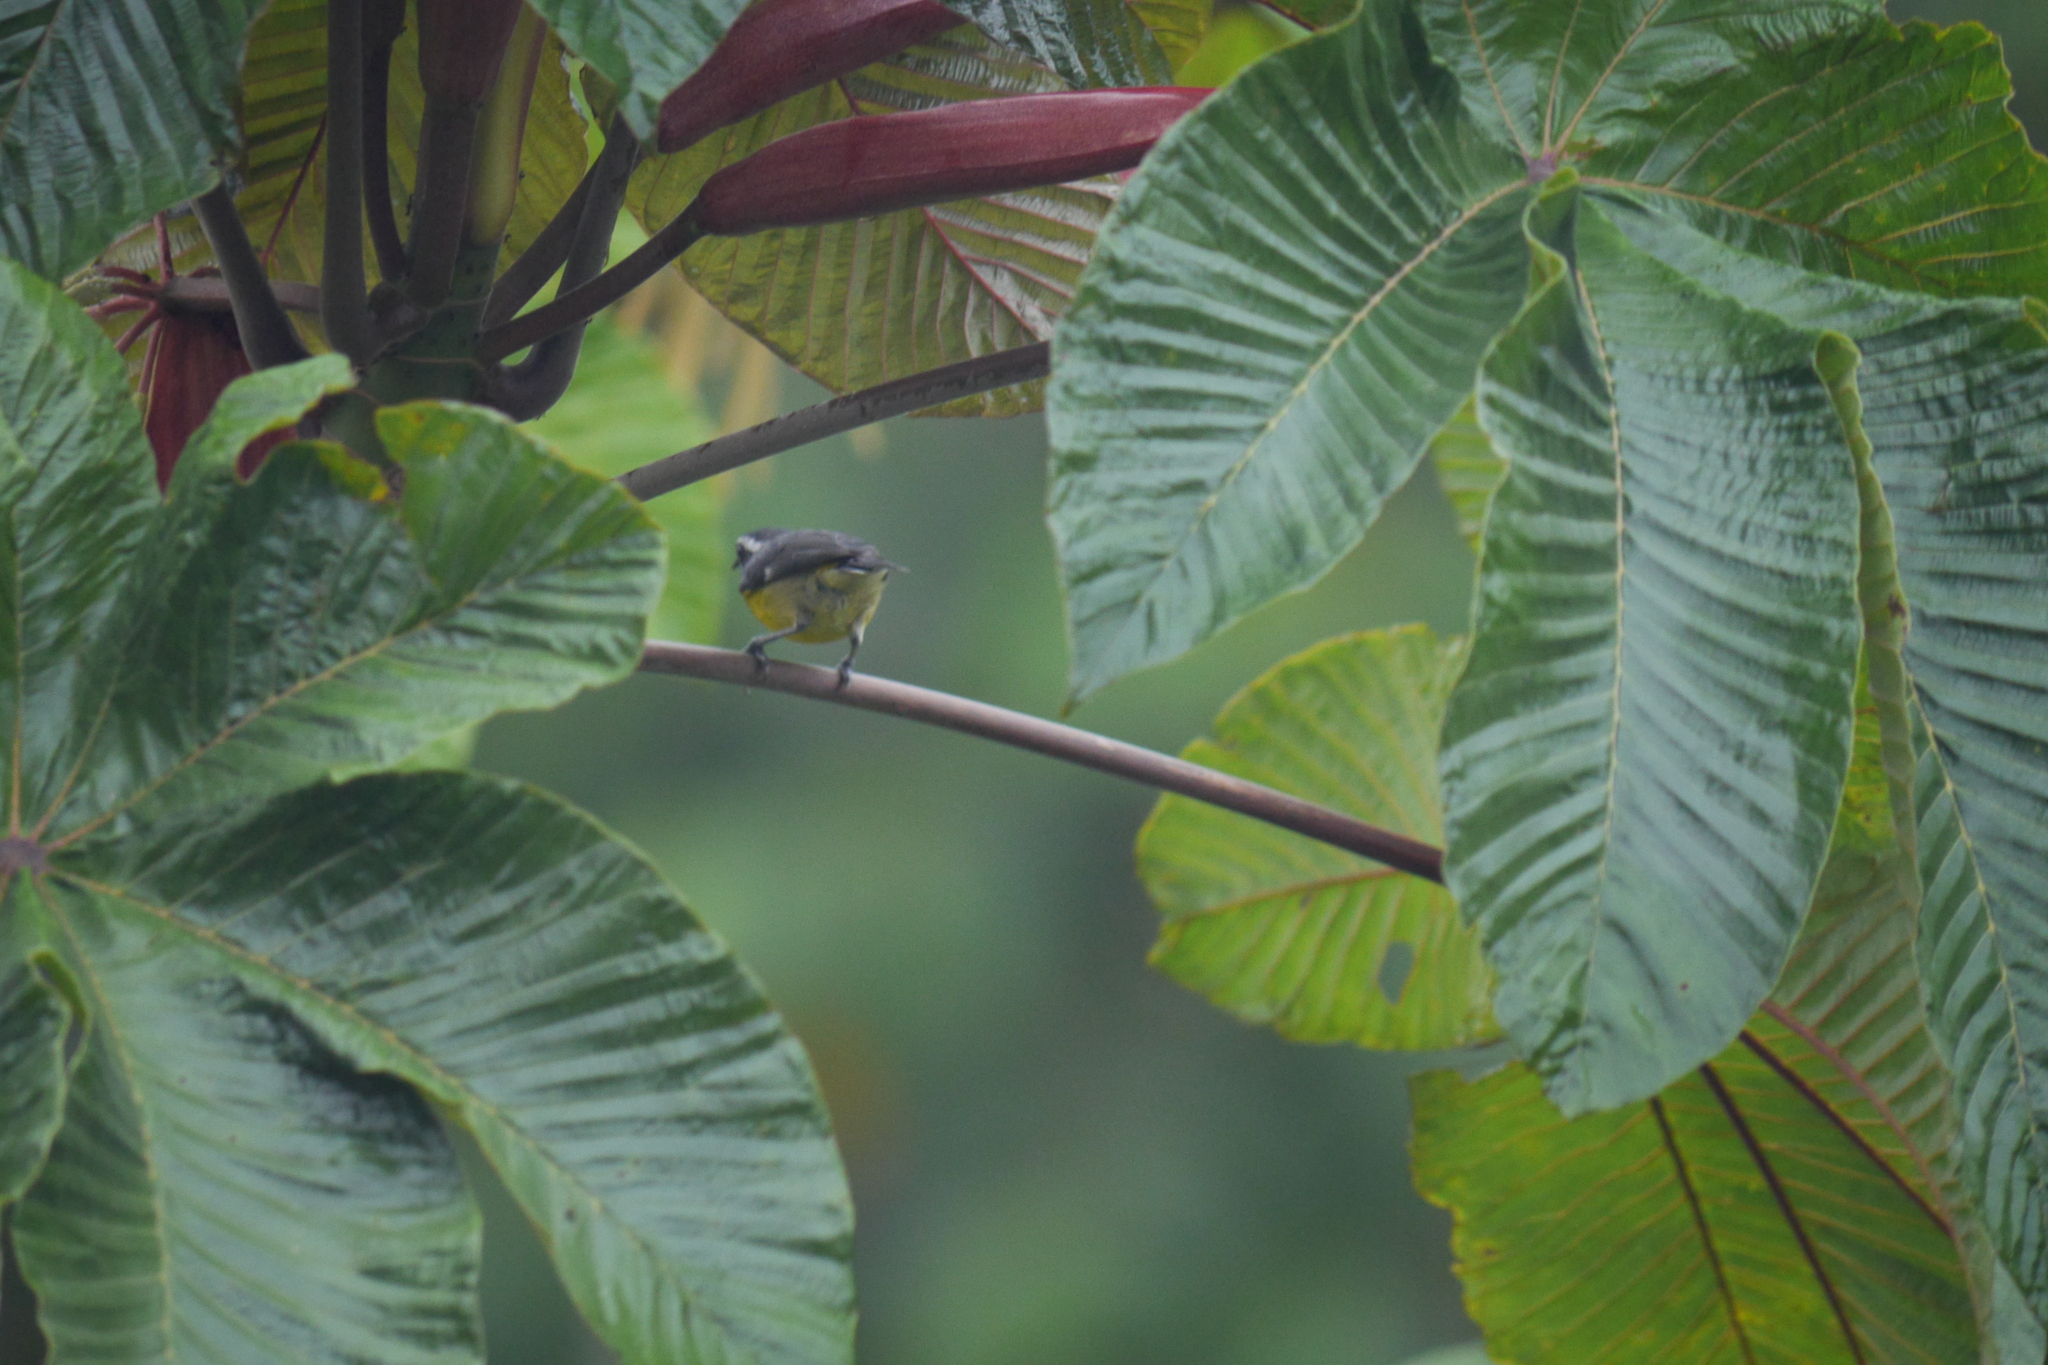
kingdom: Animalia
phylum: Chordata
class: Aves
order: Passeriformes
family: Thraupidae
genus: Coereba
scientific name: Coereba flaveola
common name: Bananaquit
